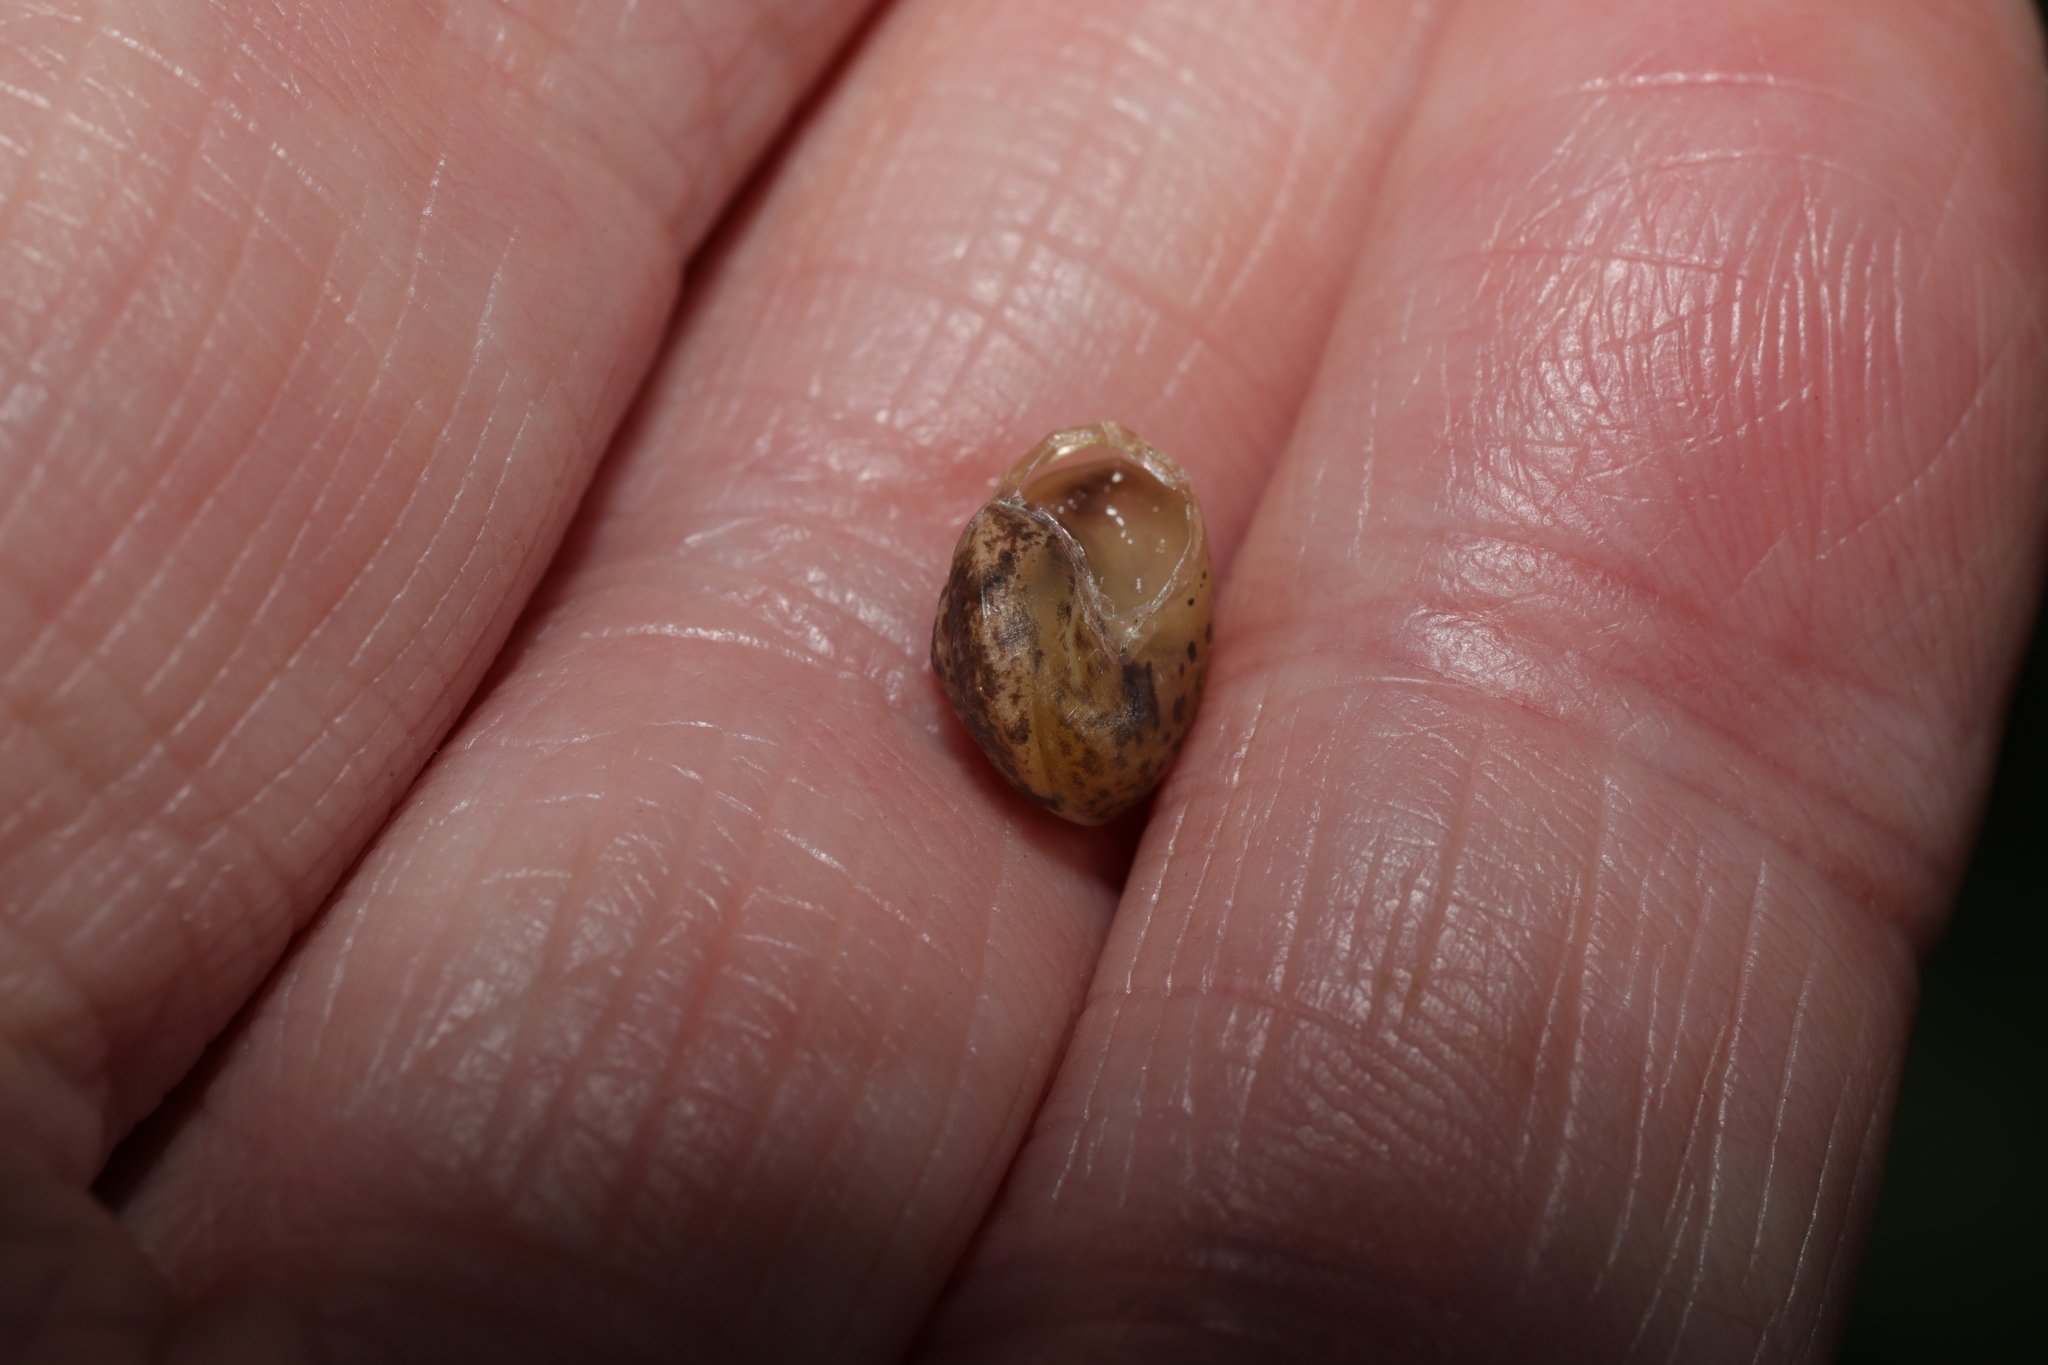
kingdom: Animalia
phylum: Mollusca
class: Gastropoda
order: Stylommatophora
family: Hygromiidae
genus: Hygromia
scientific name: Hygromia cinctella
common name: Girdled snail
